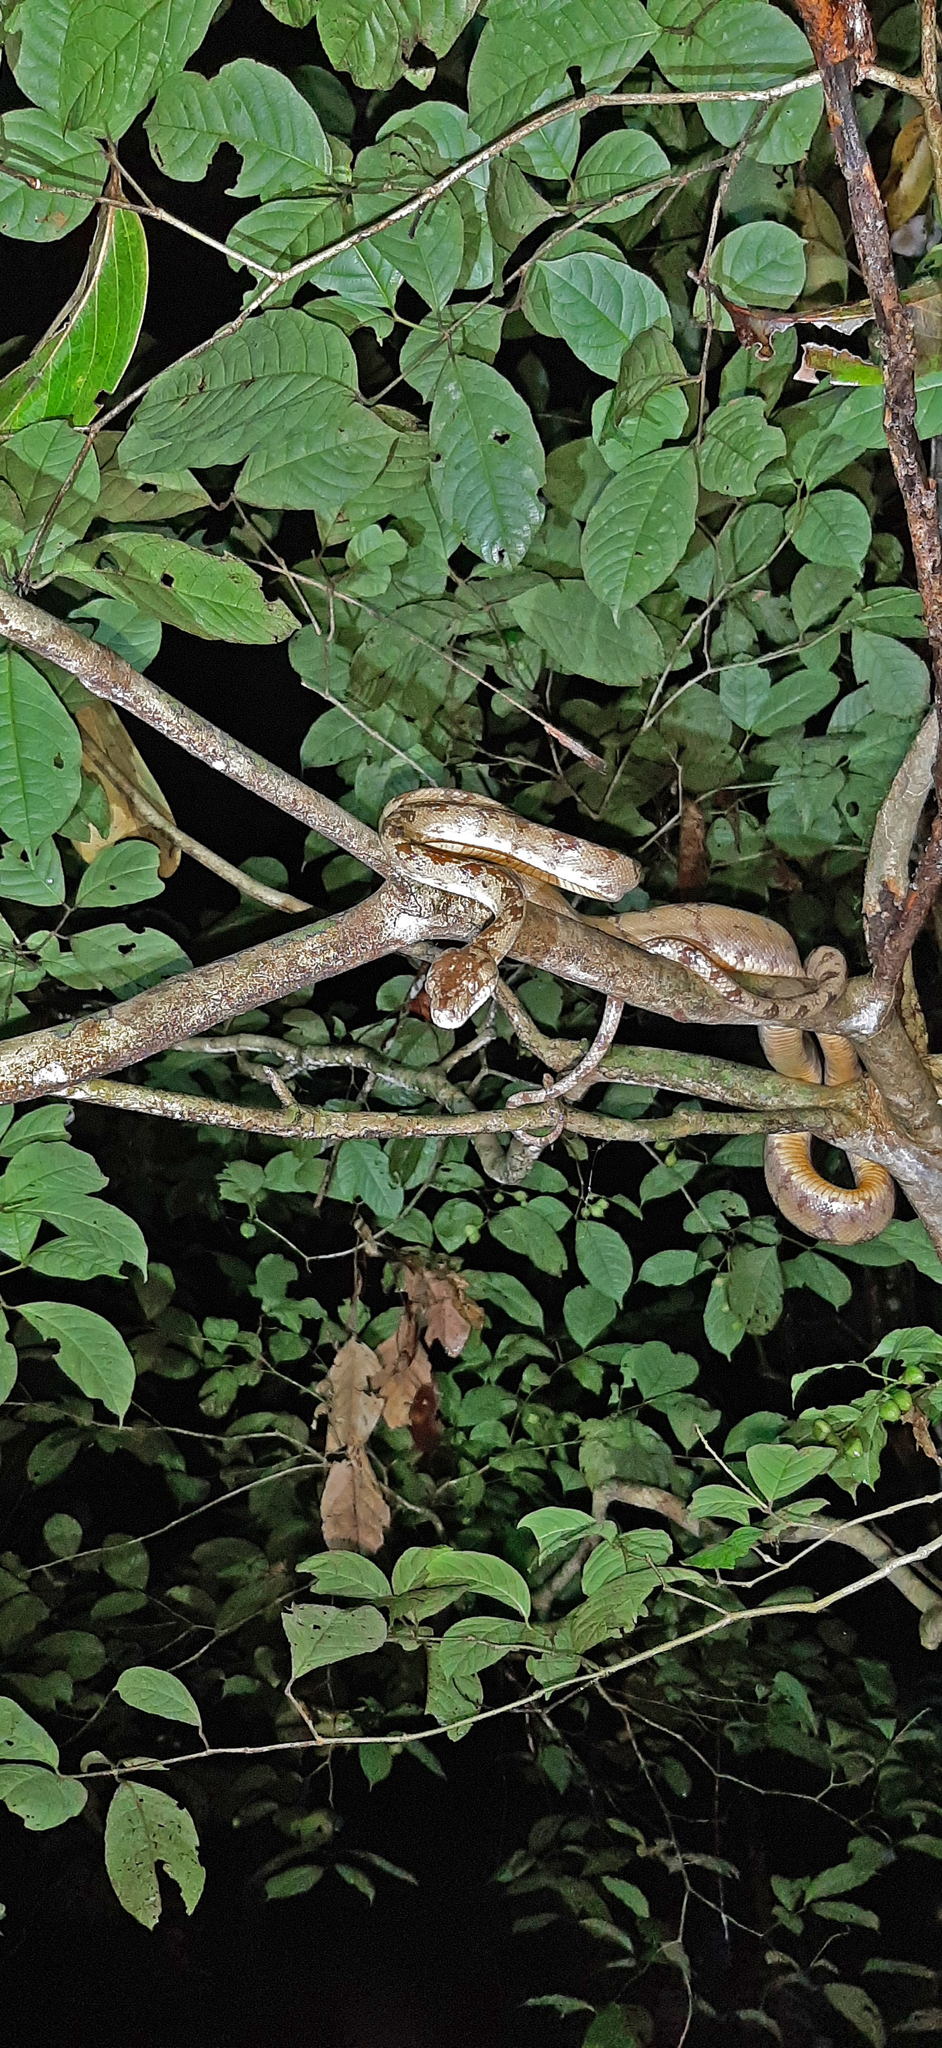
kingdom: Animalia
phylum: Chordata
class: Squamata
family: Boidae
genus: Corallus
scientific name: Corallus hortulana
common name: Garden tree boa
